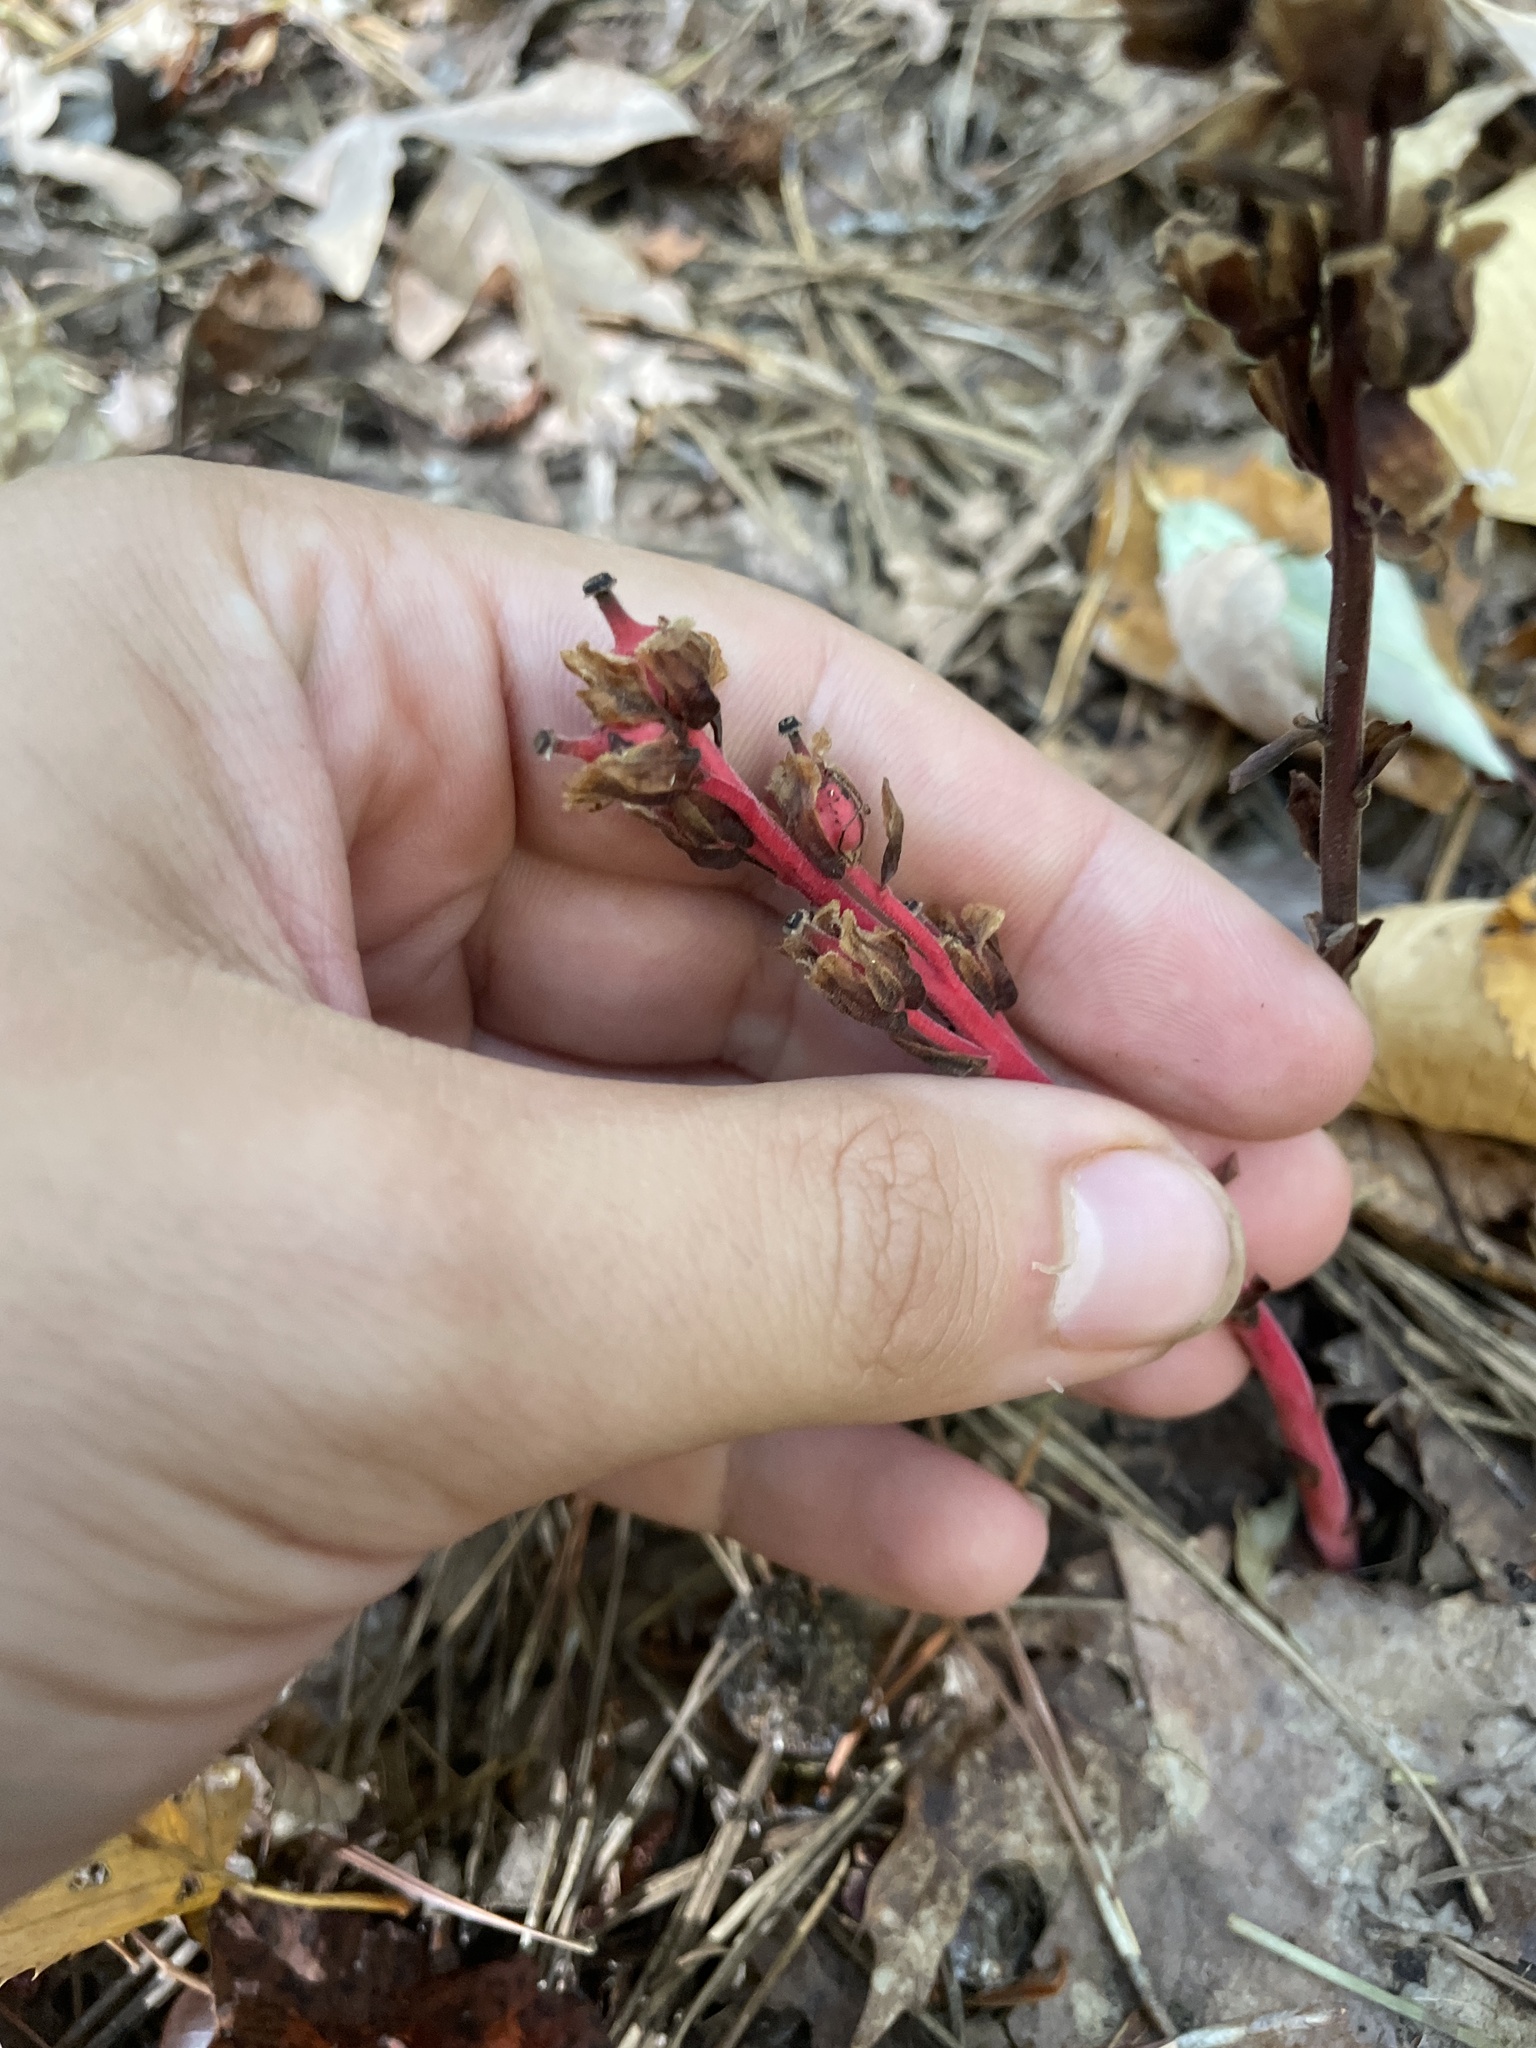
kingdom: Plantae
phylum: Tracheophyta
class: Magnoliopsida
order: Ericales
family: Ericaceae
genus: Hypopitys
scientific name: Hypopitys monotropa
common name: Yellow bird's-nest
